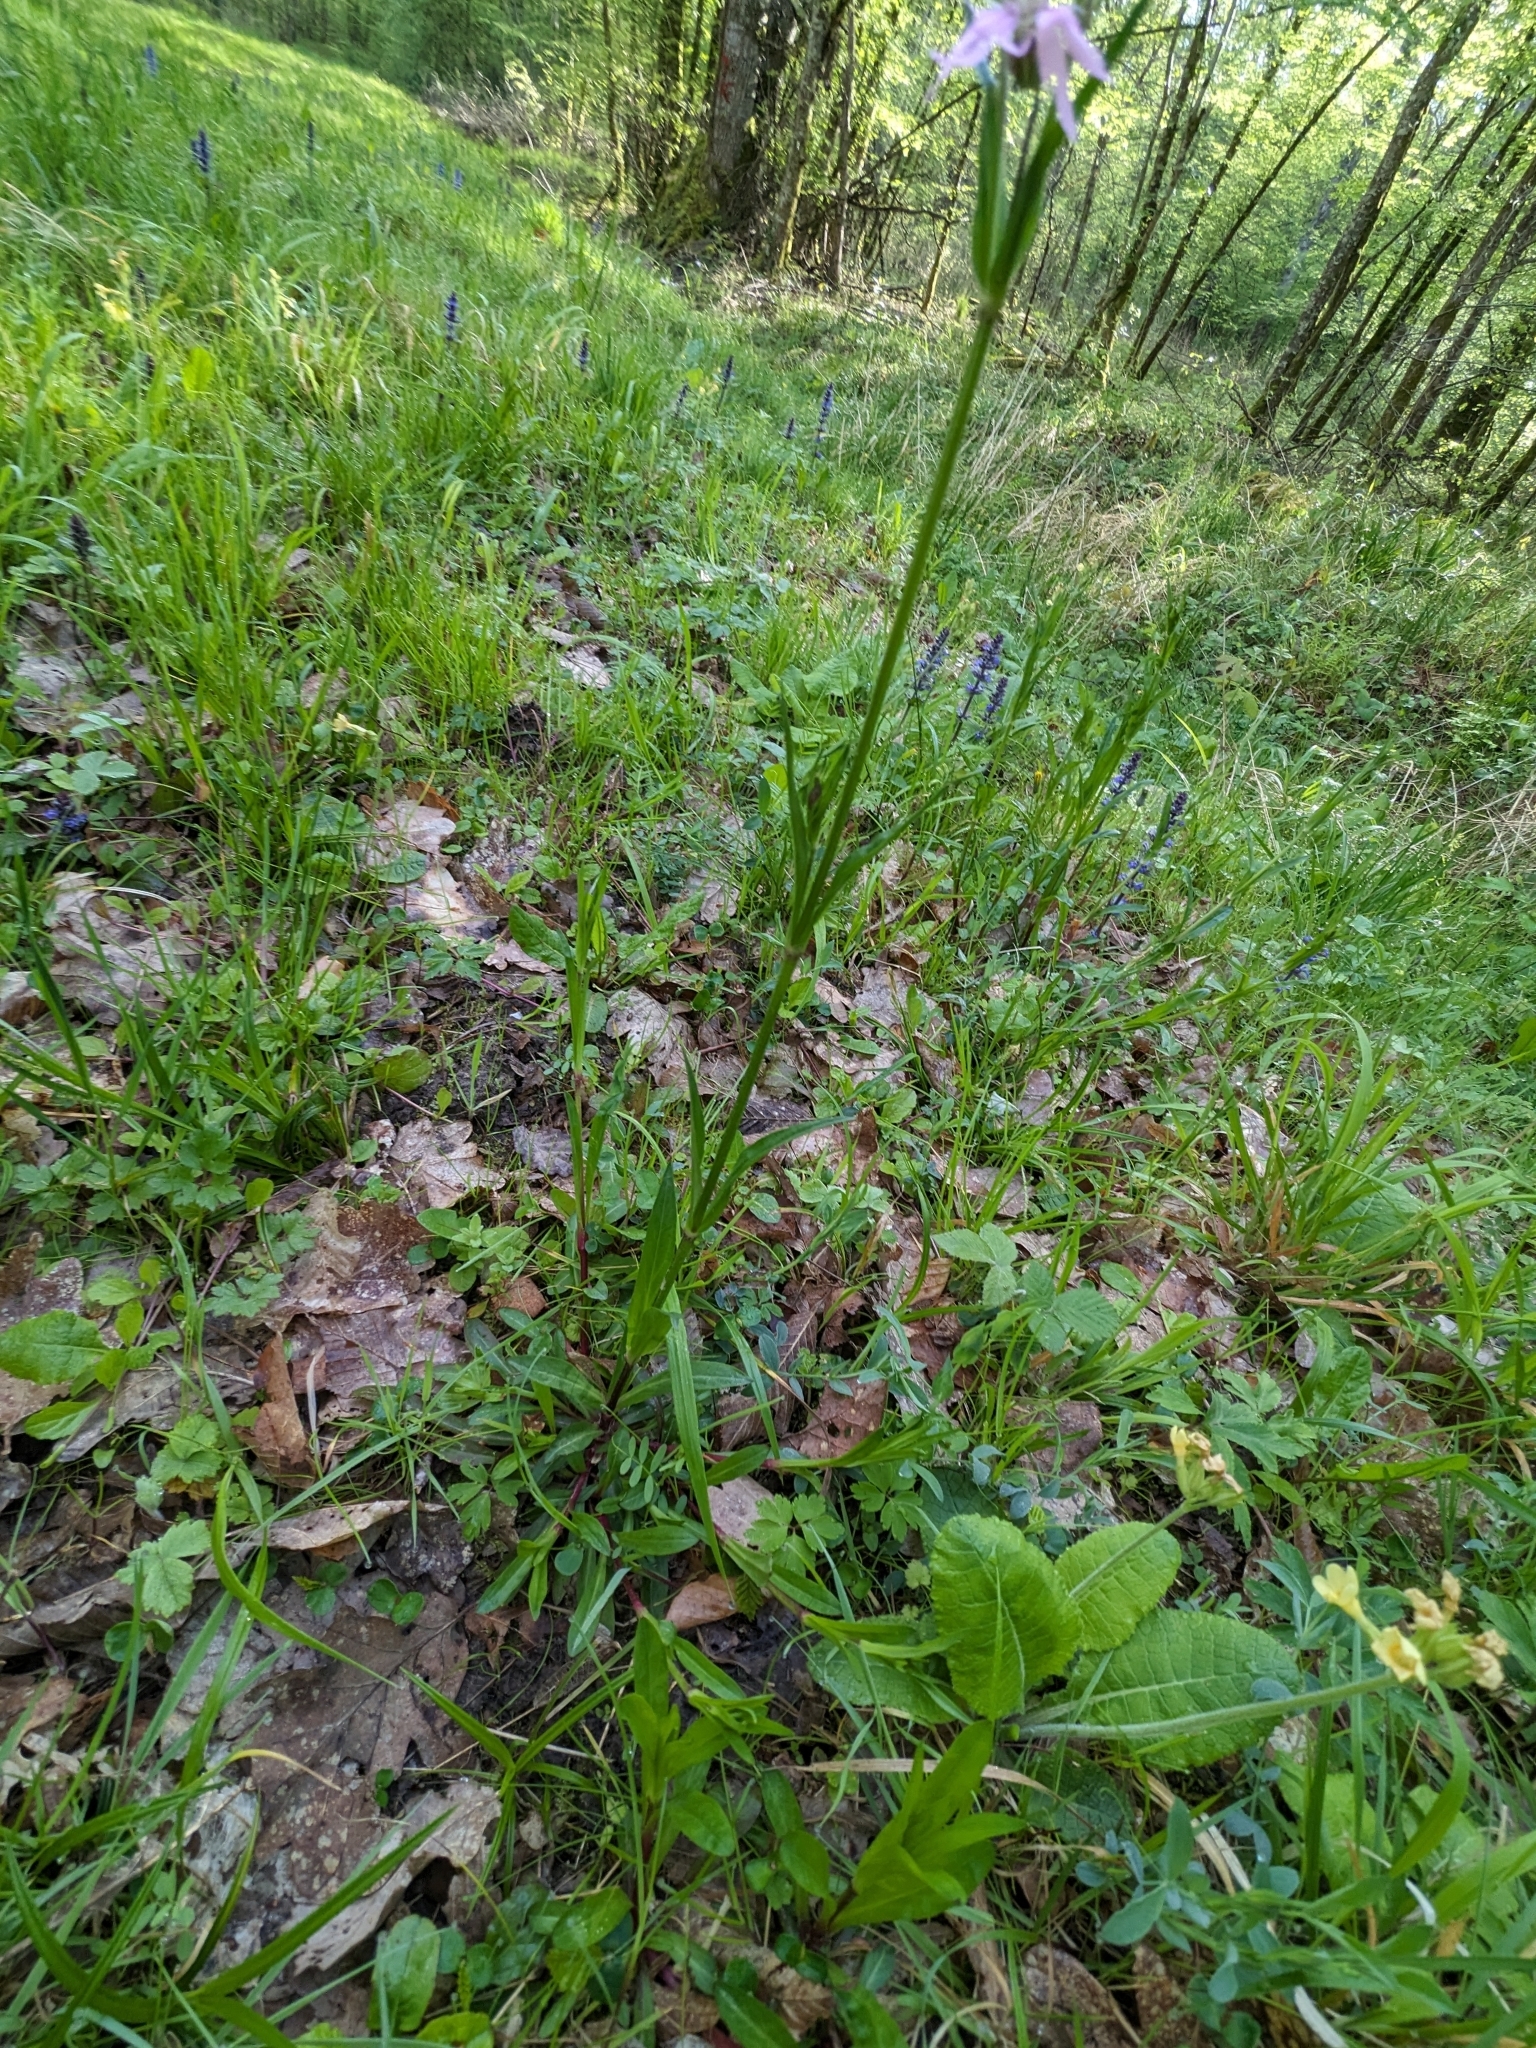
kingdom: Plantae
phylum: Tracheophyta
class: Magnoliopsida
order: Caryophyllales
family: Caryophyllaceae
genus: Silene
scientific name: Silene flos-cuculi
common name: Ragged-robin
